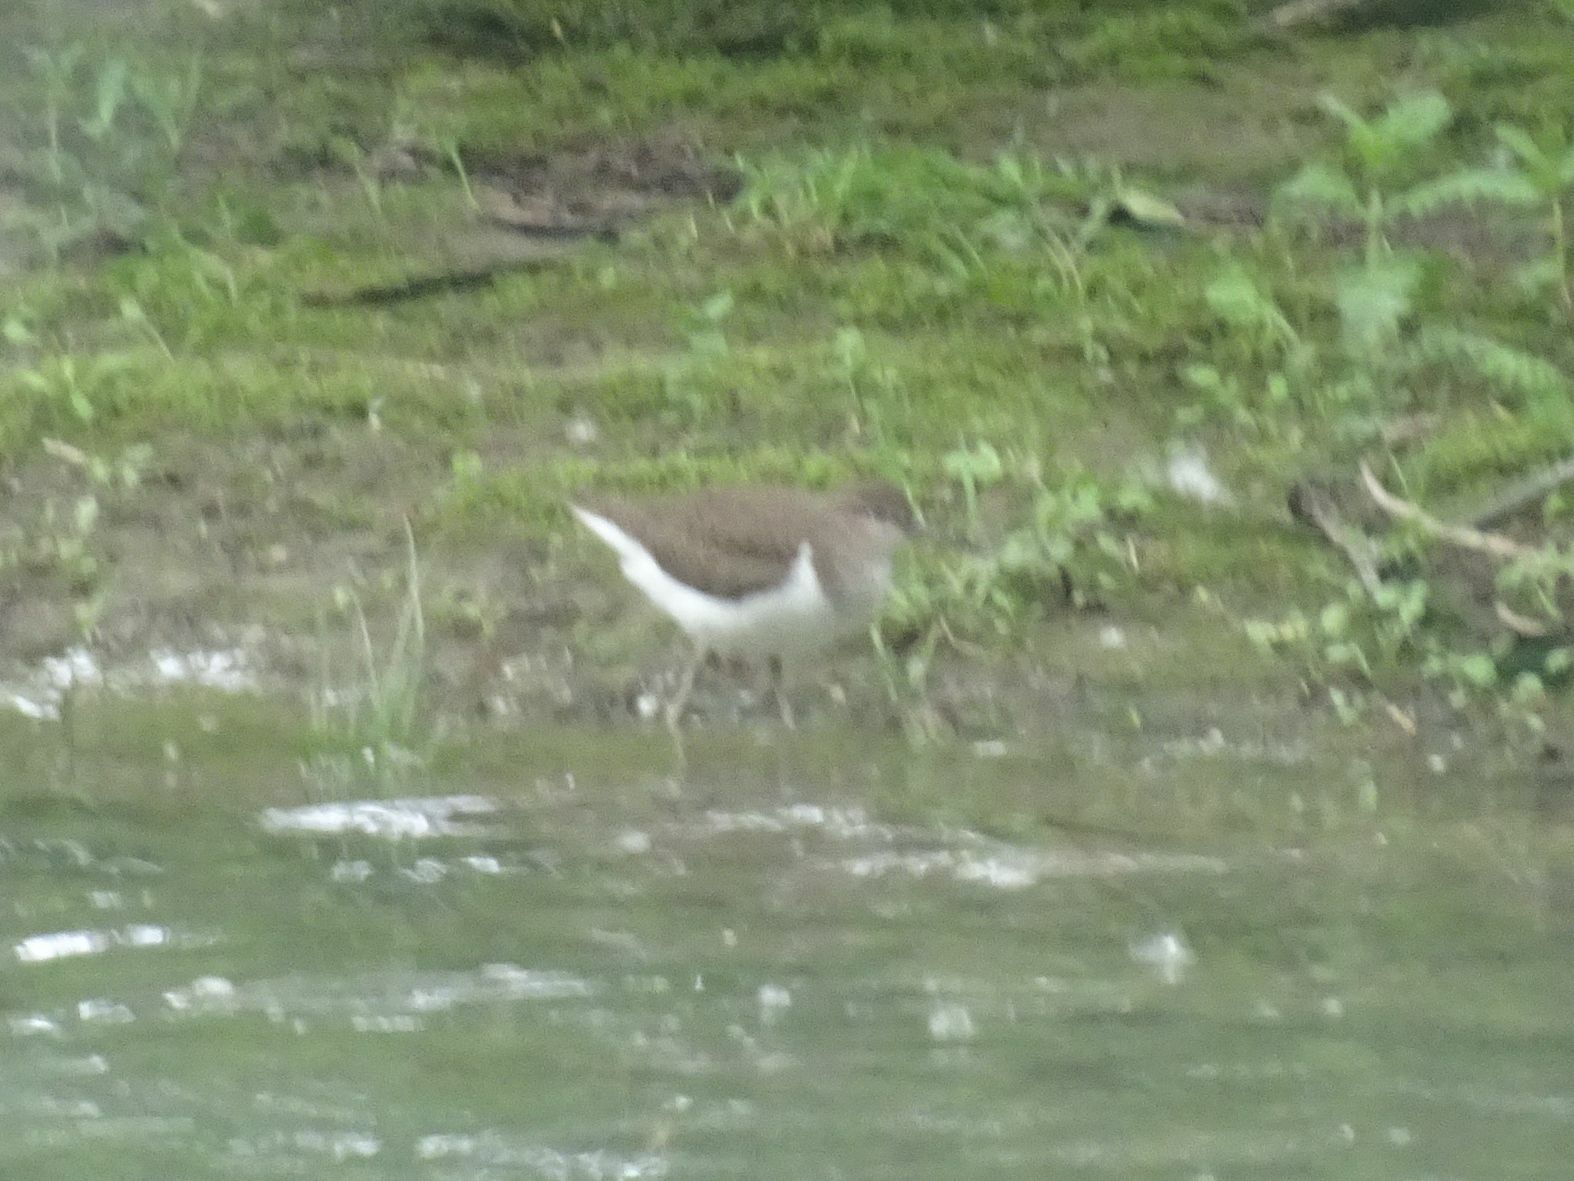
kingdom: Animalia
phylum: Chordata
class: Aves
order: Charadriiformes
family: Scolopacidae
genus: Actitis
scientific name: Actitis hypoleucos
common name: Common sandpiper
